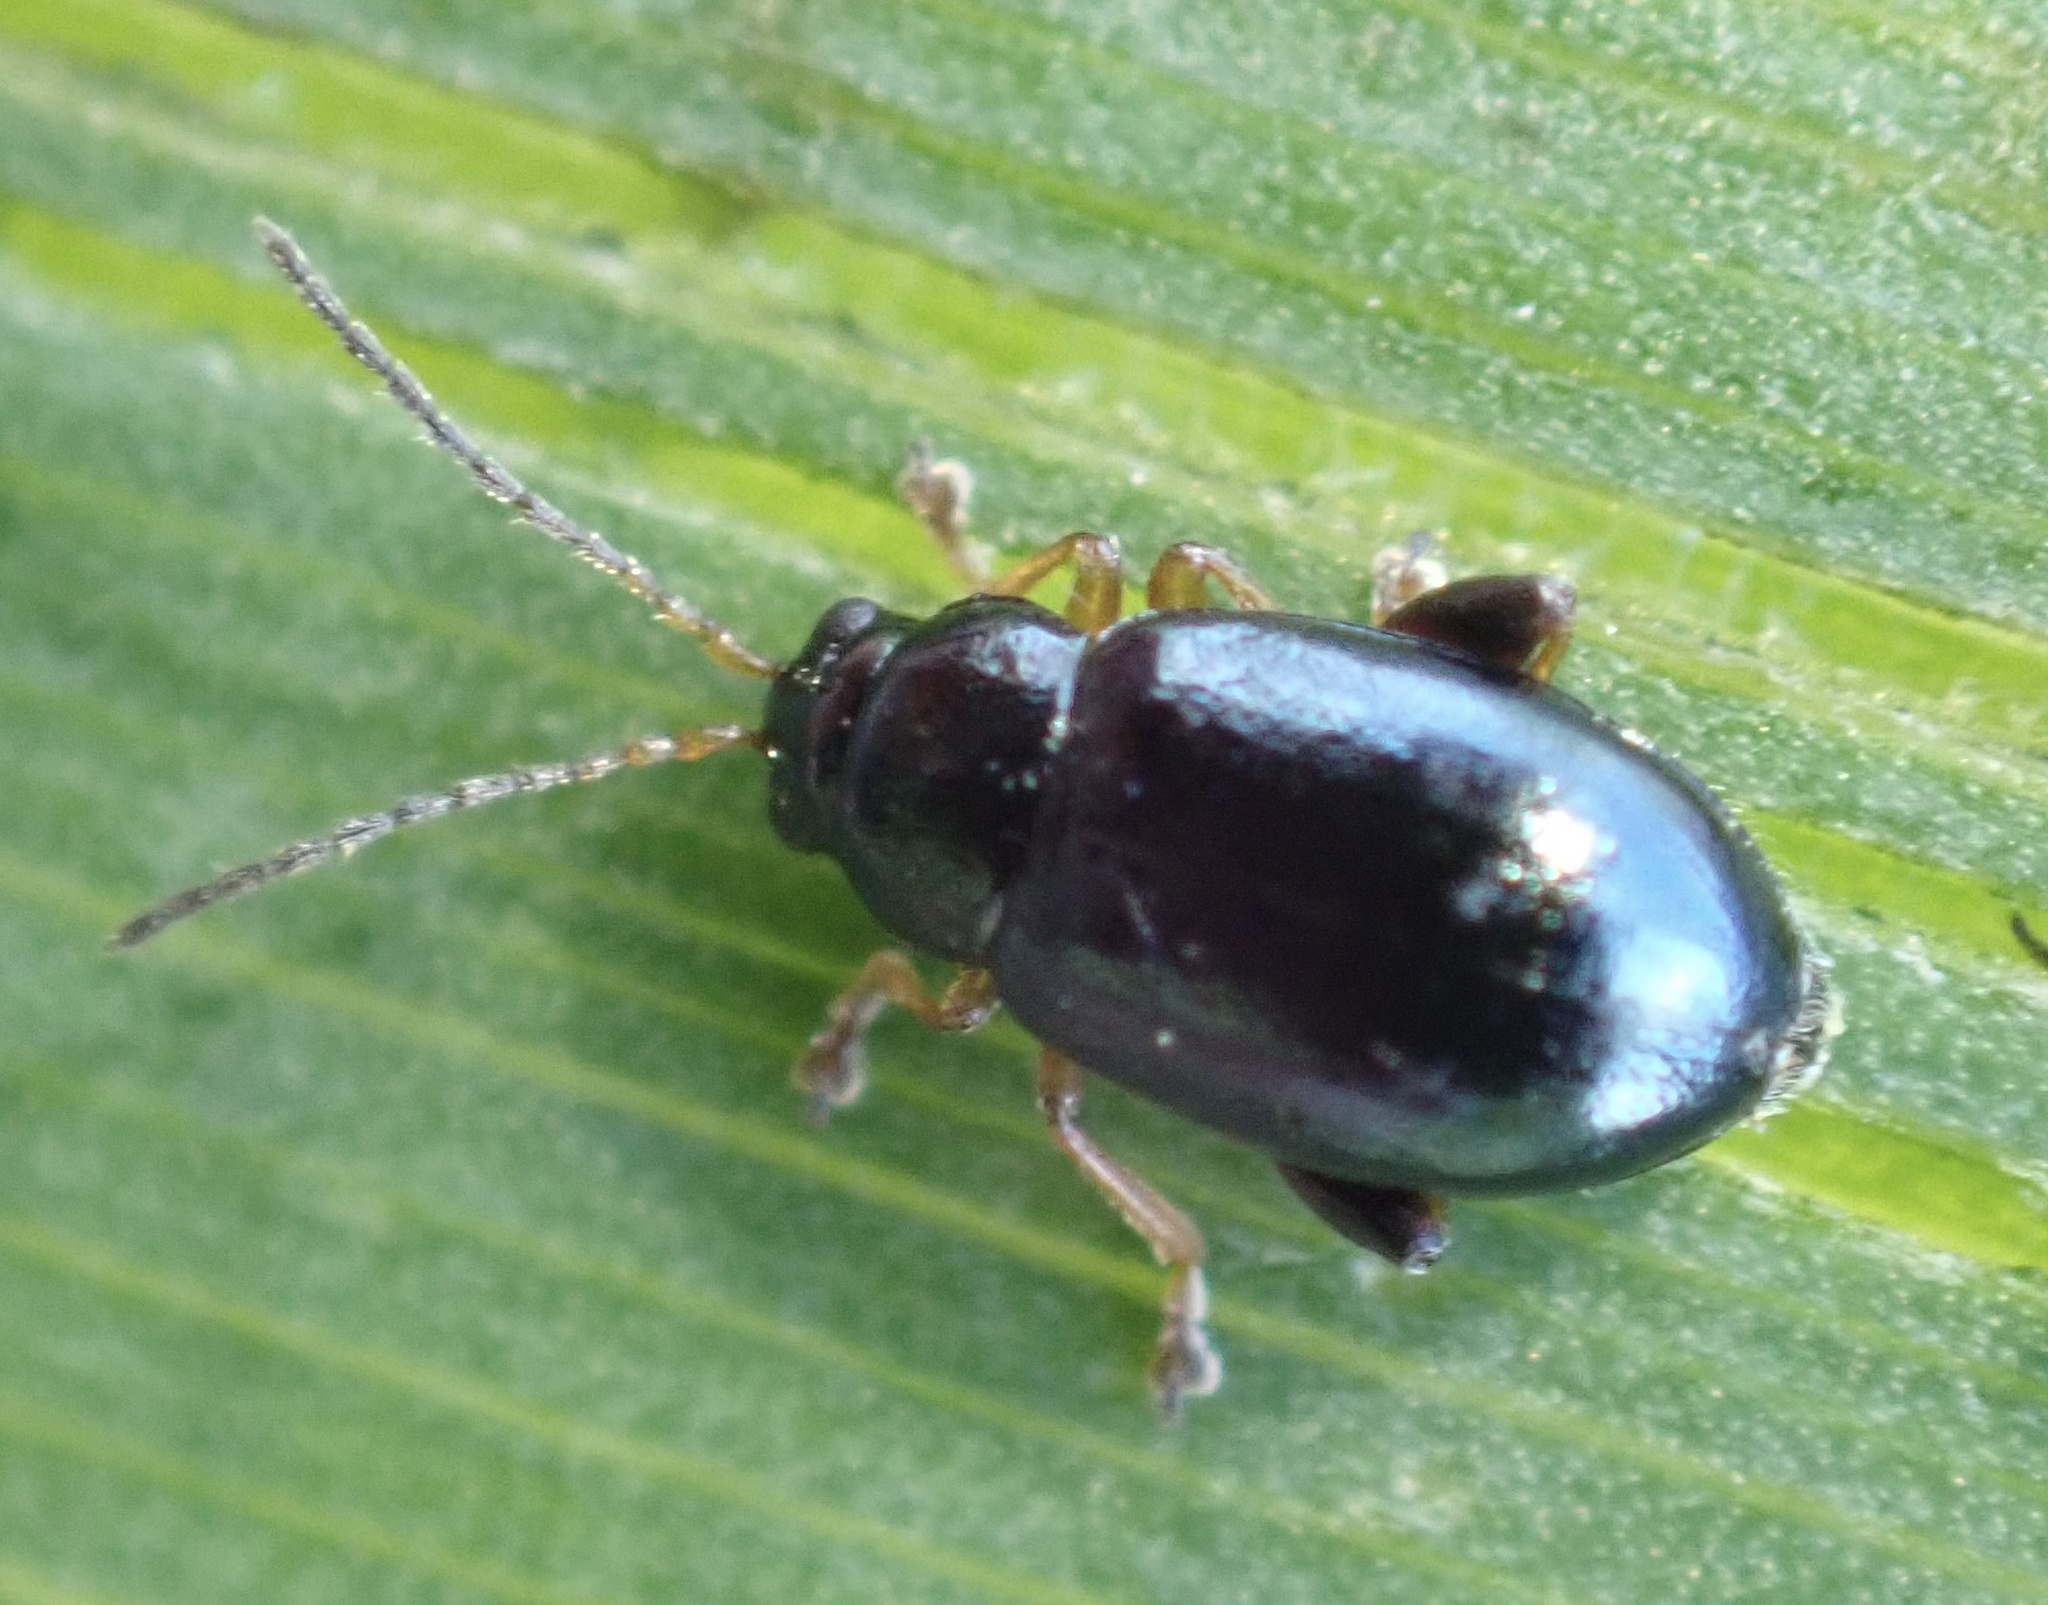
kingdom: Animalia
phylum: Arthropoda
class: Insecta
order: Coleoptera
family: Chrysomelidae
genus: Aphthona
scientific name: Aphthona nonstriata
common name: Iris flea beetle
